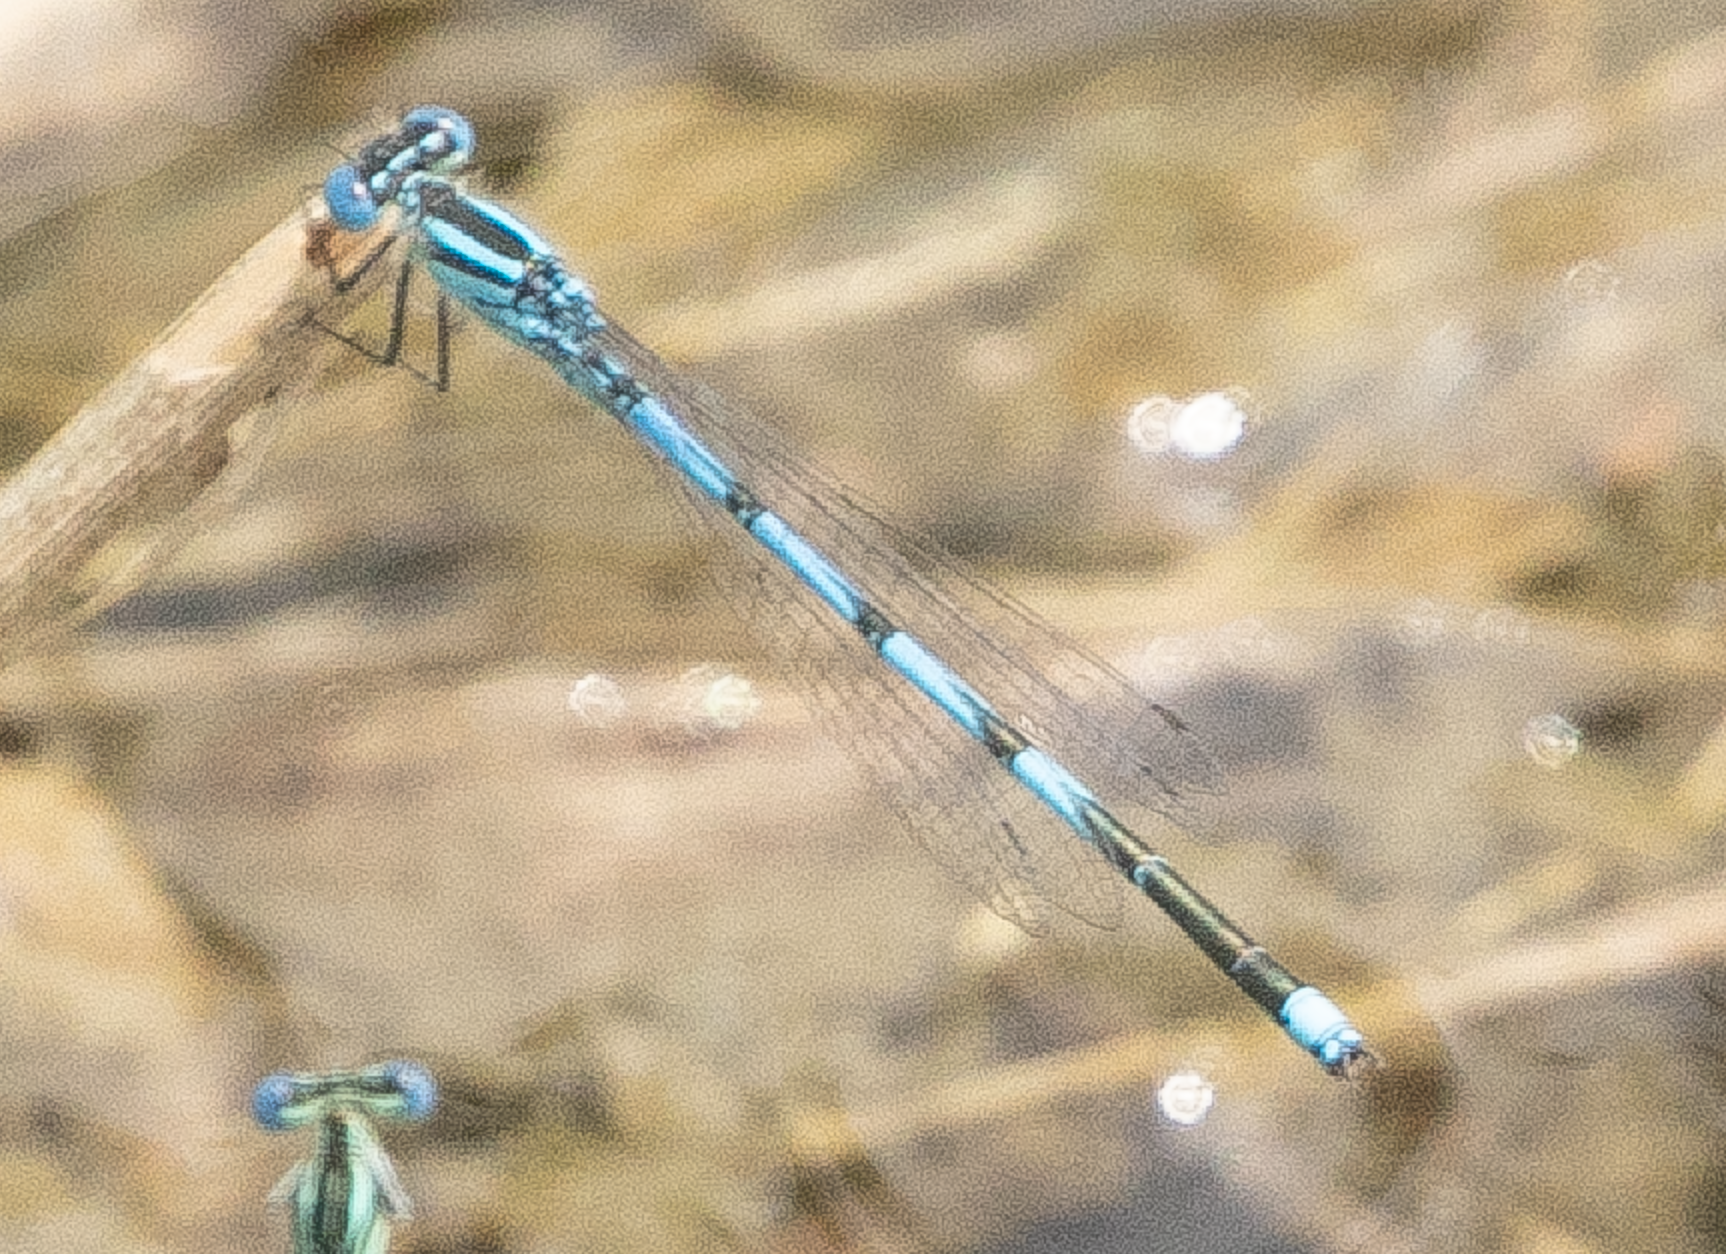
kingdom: Animalia
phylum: Arthropoda
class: Insecta
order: Odonata
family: Coenagrionidae
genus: Erythromma
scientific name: Erythromma lindenii
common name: Blue-eye
